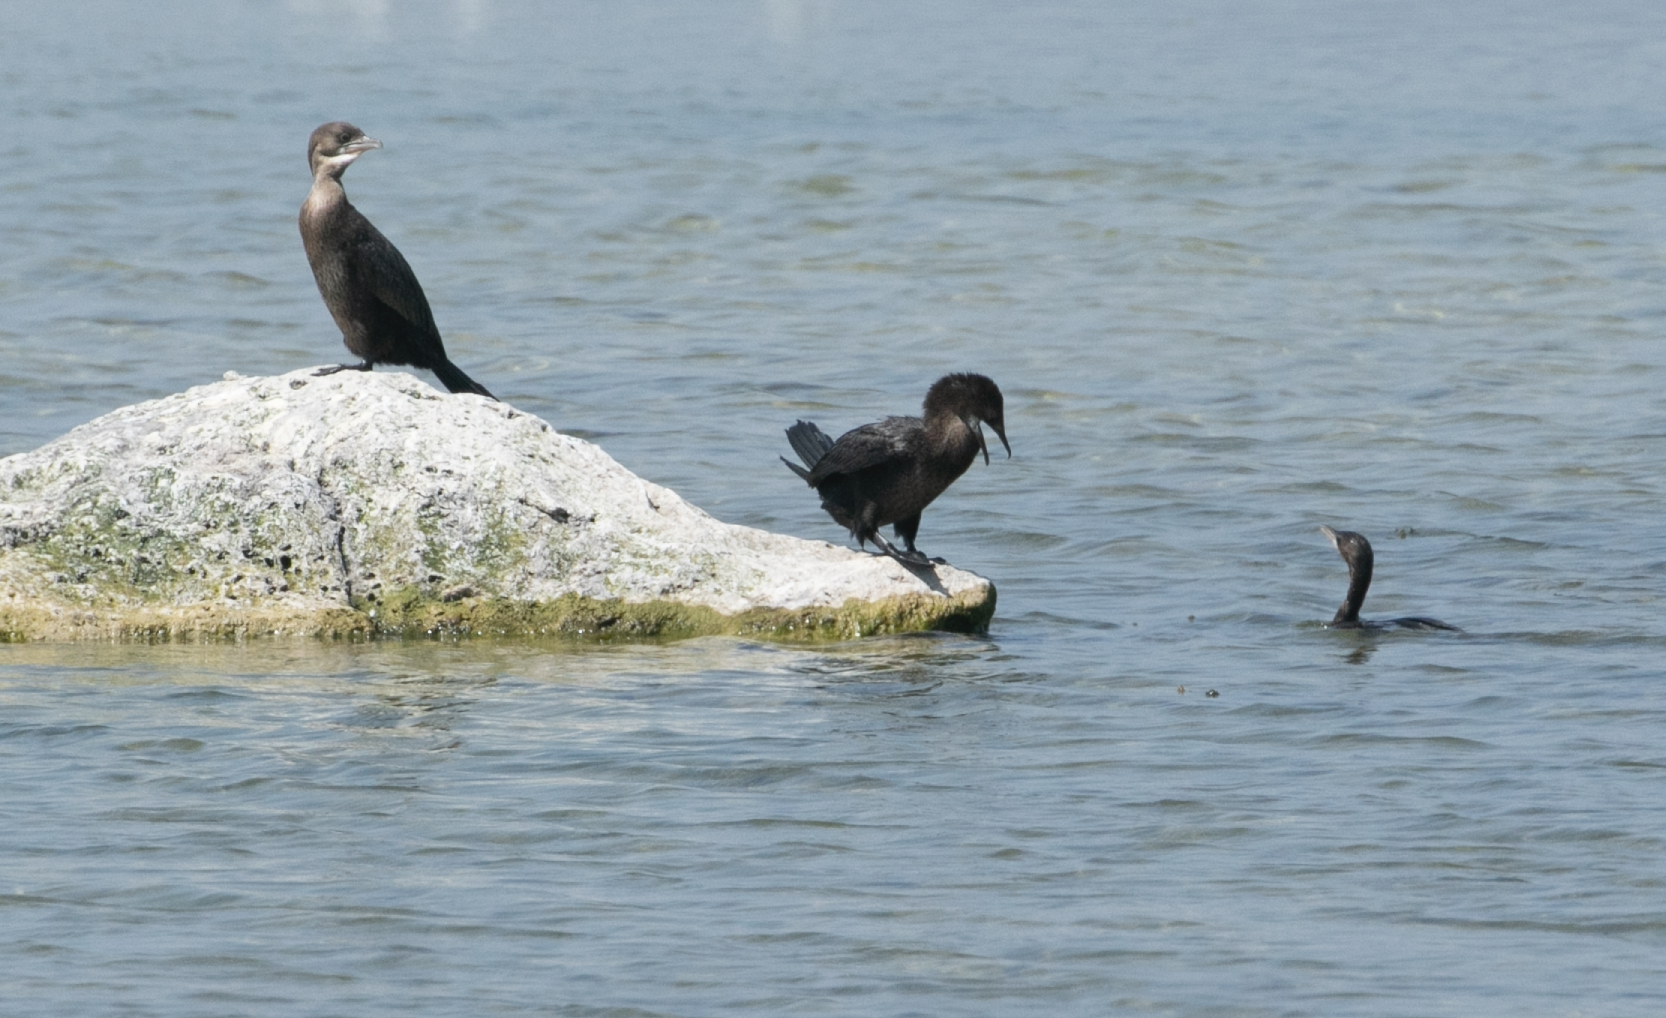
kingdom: Animalia
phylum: Chordata
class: Aves
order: Suliformes
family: Phalacrocoracidae
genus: Microcarbo
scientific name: Microcarbo pygmaeus
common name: Pygmy cormorant
